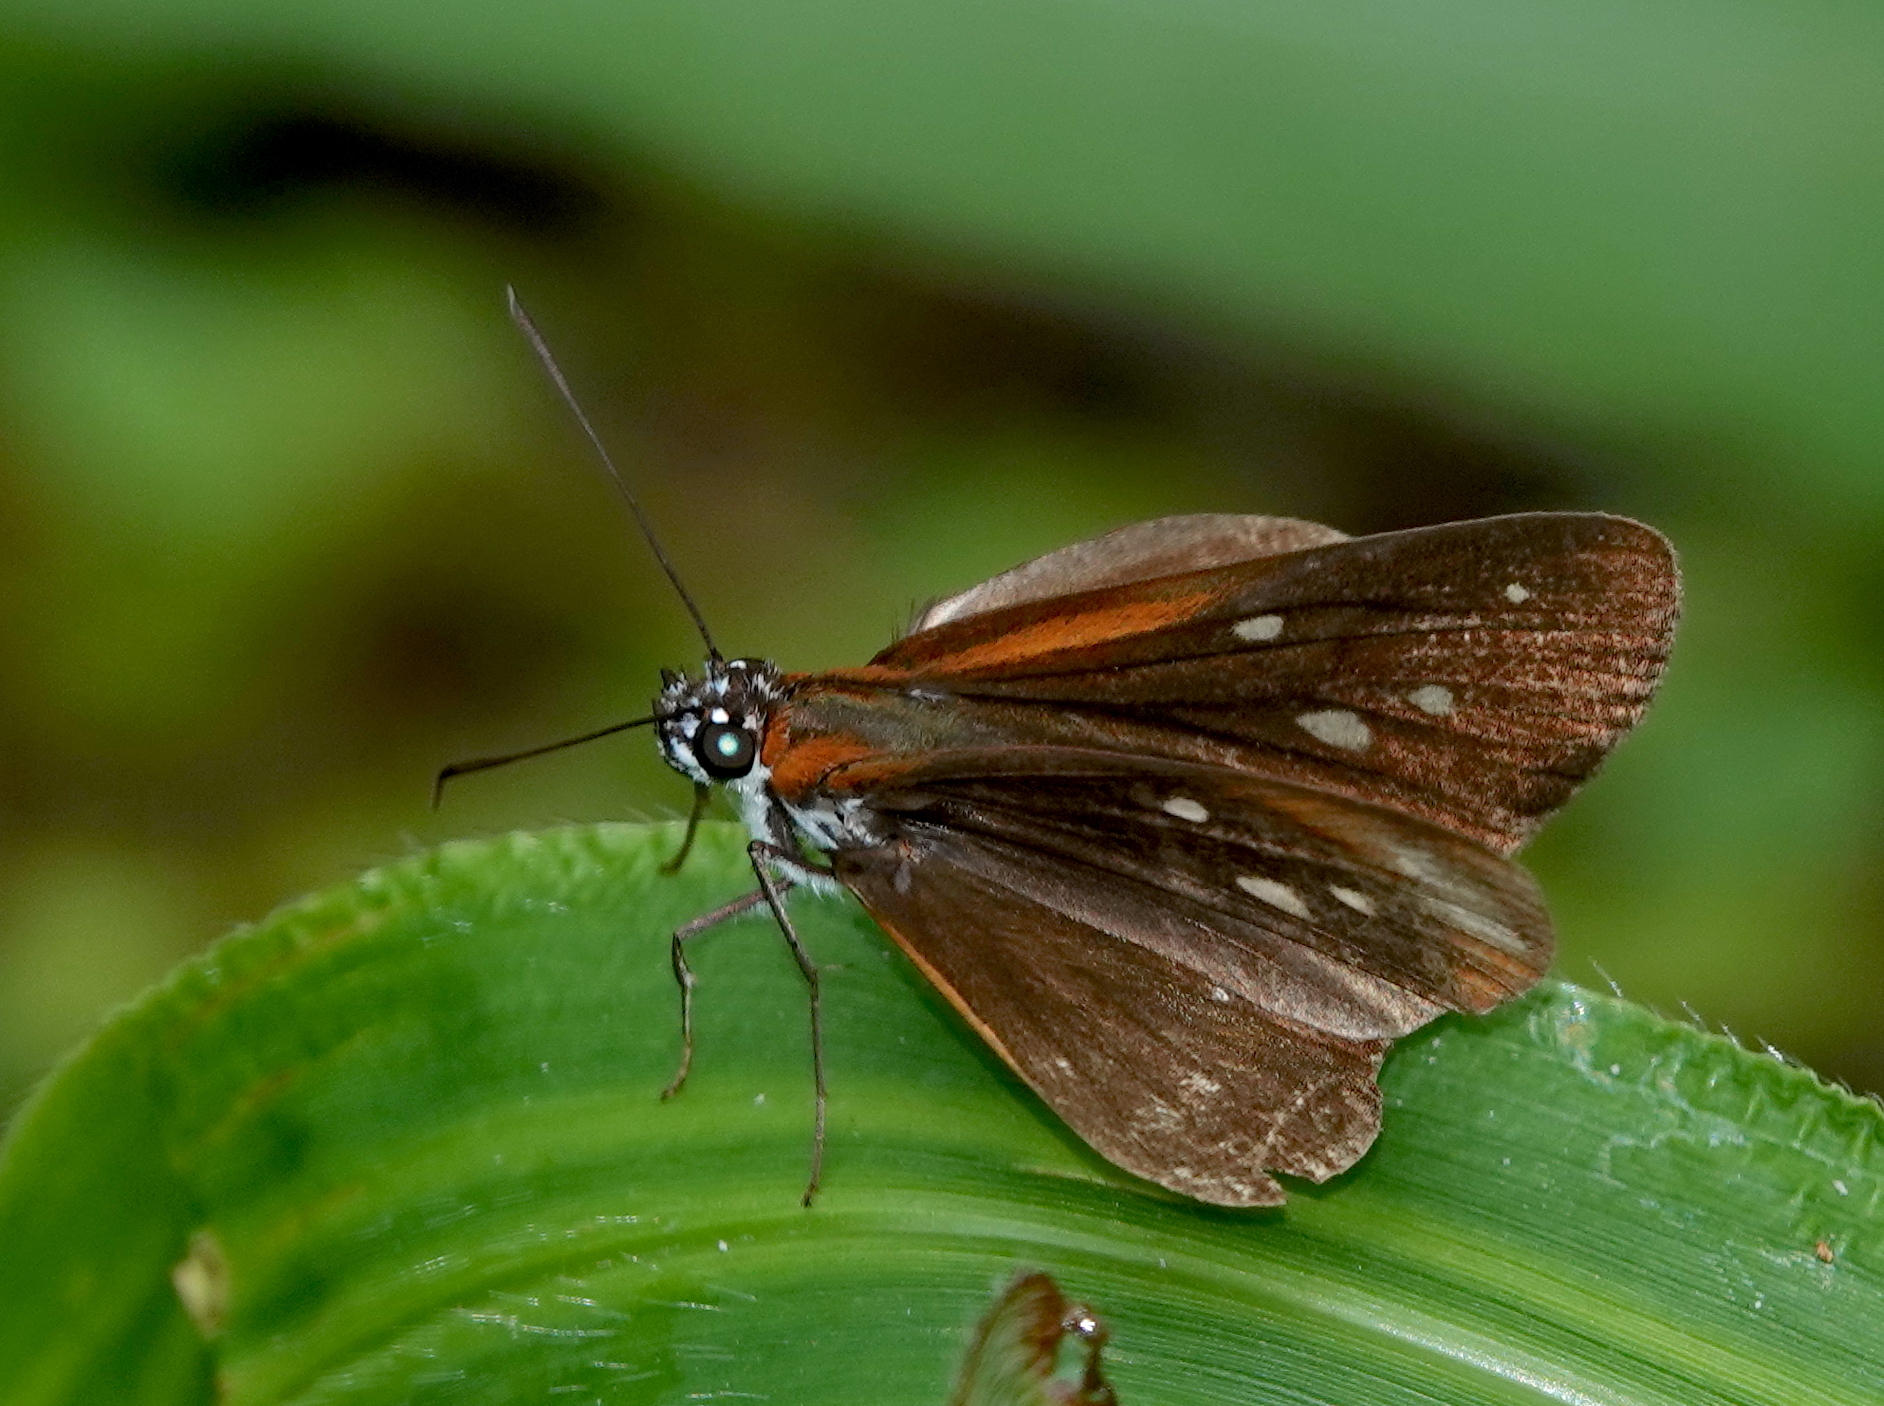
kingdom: Animalia
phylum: Arthropoda
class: Insecta
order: Lepidoptera
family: Hesperiidae
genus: Corra
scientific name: Corra
